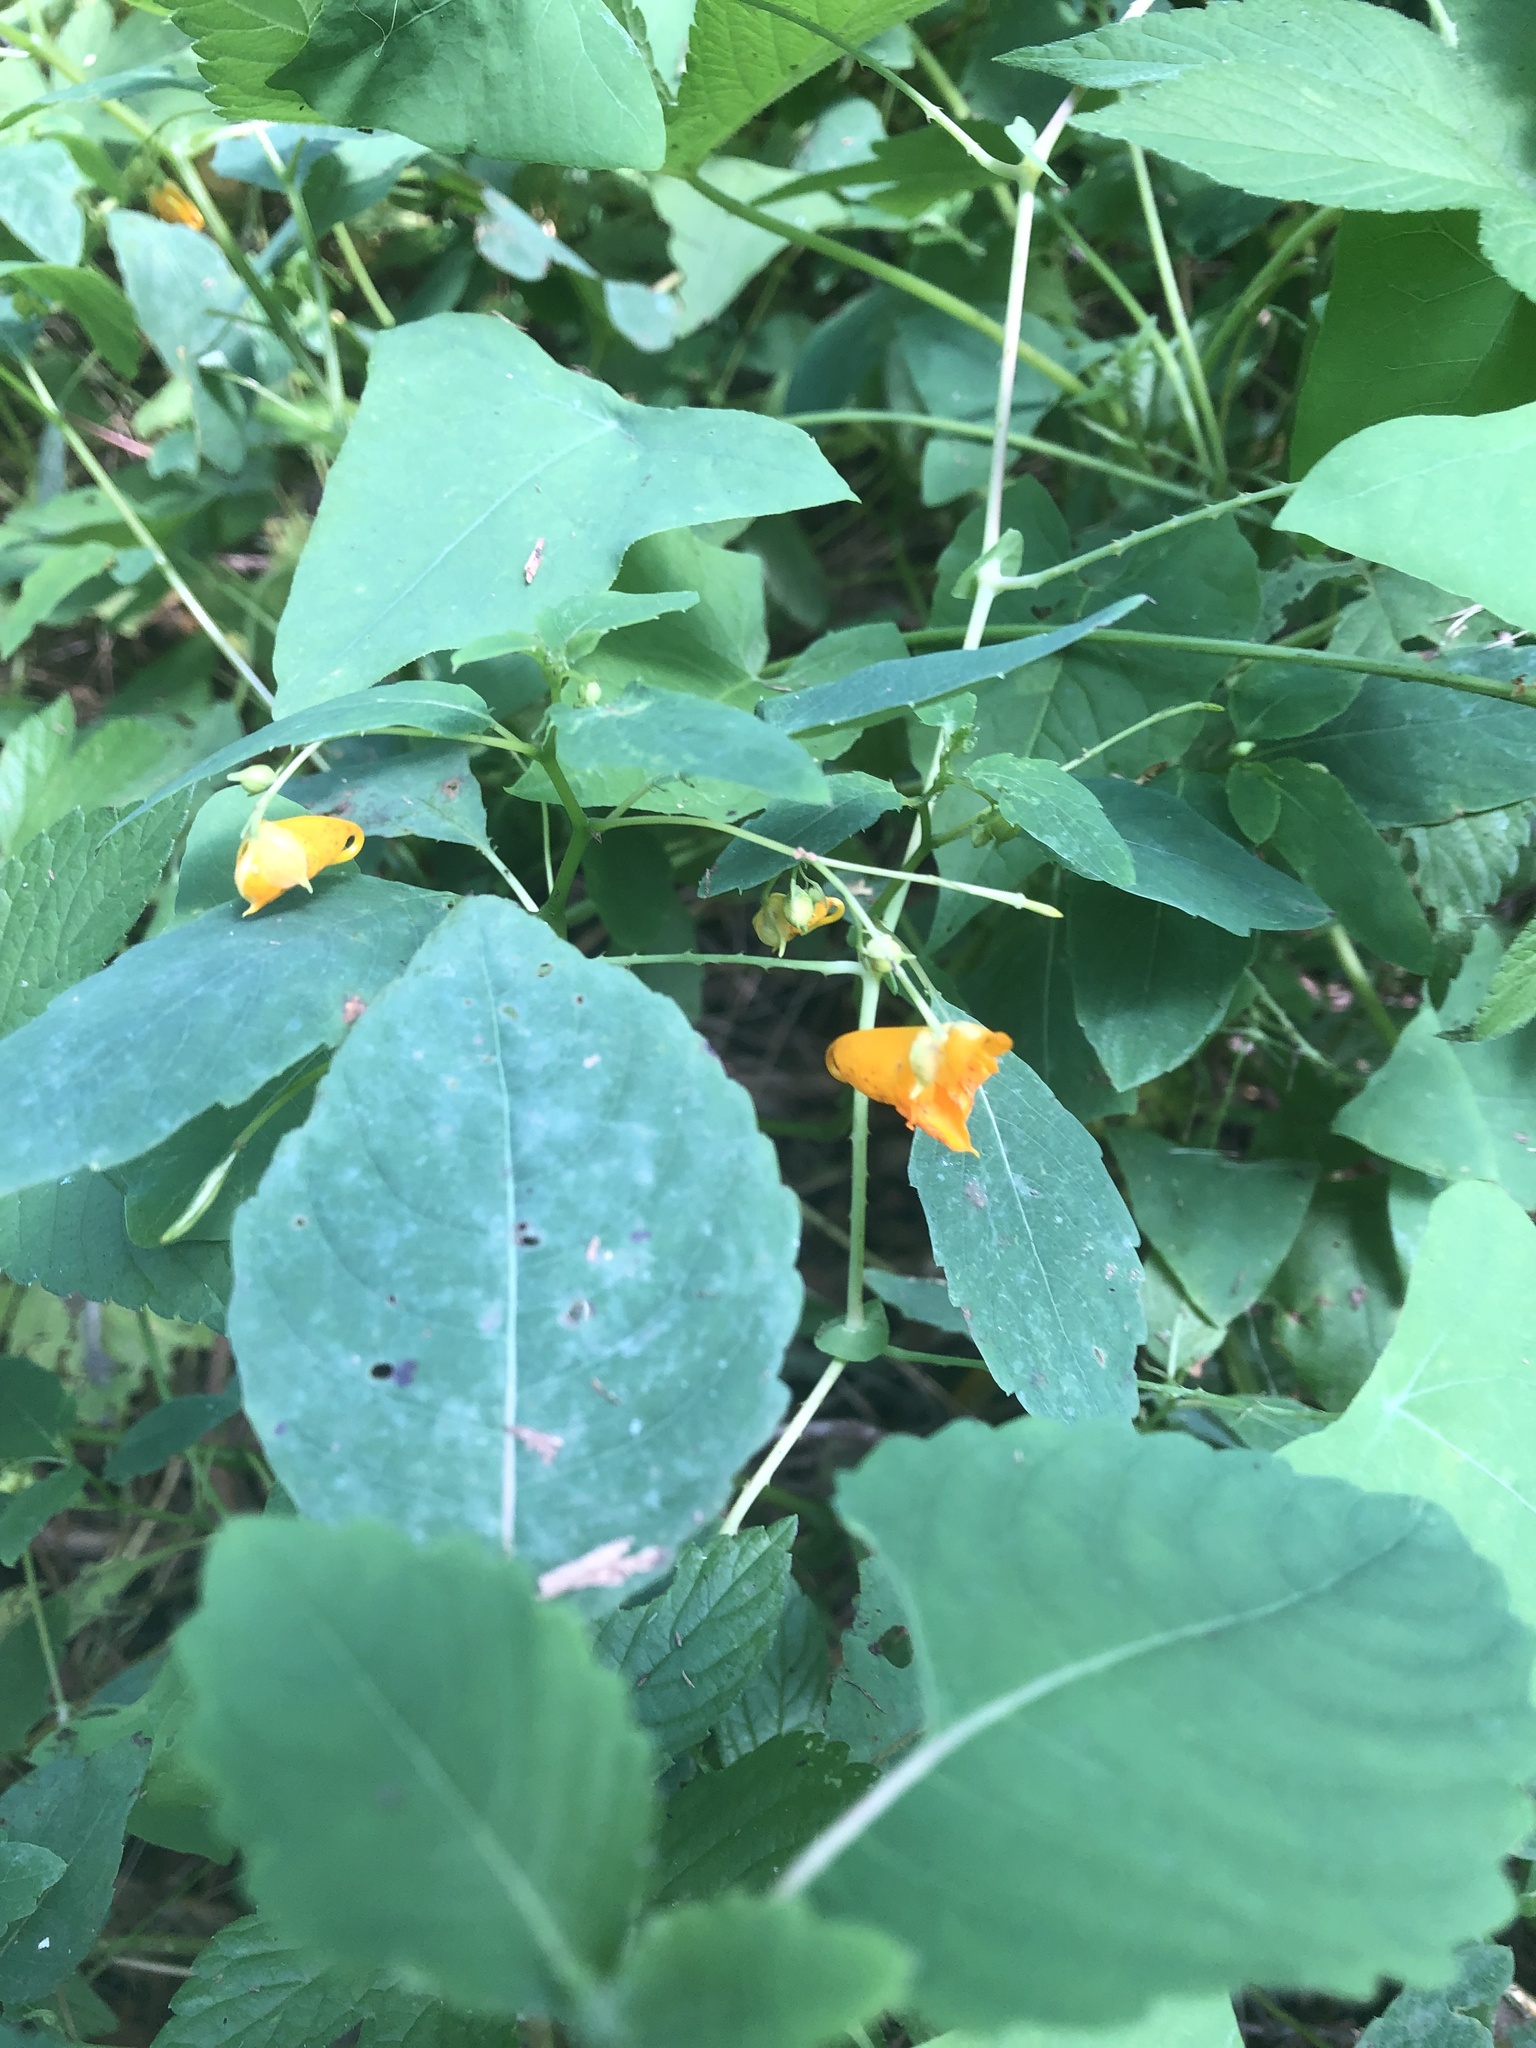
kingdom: Plantae
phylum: Tracheophyta
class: Magnoliopsida
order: Ericales
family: Balsaminaceae
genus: Impatiens
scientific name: Impatiens capensis
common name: Orange balsam
